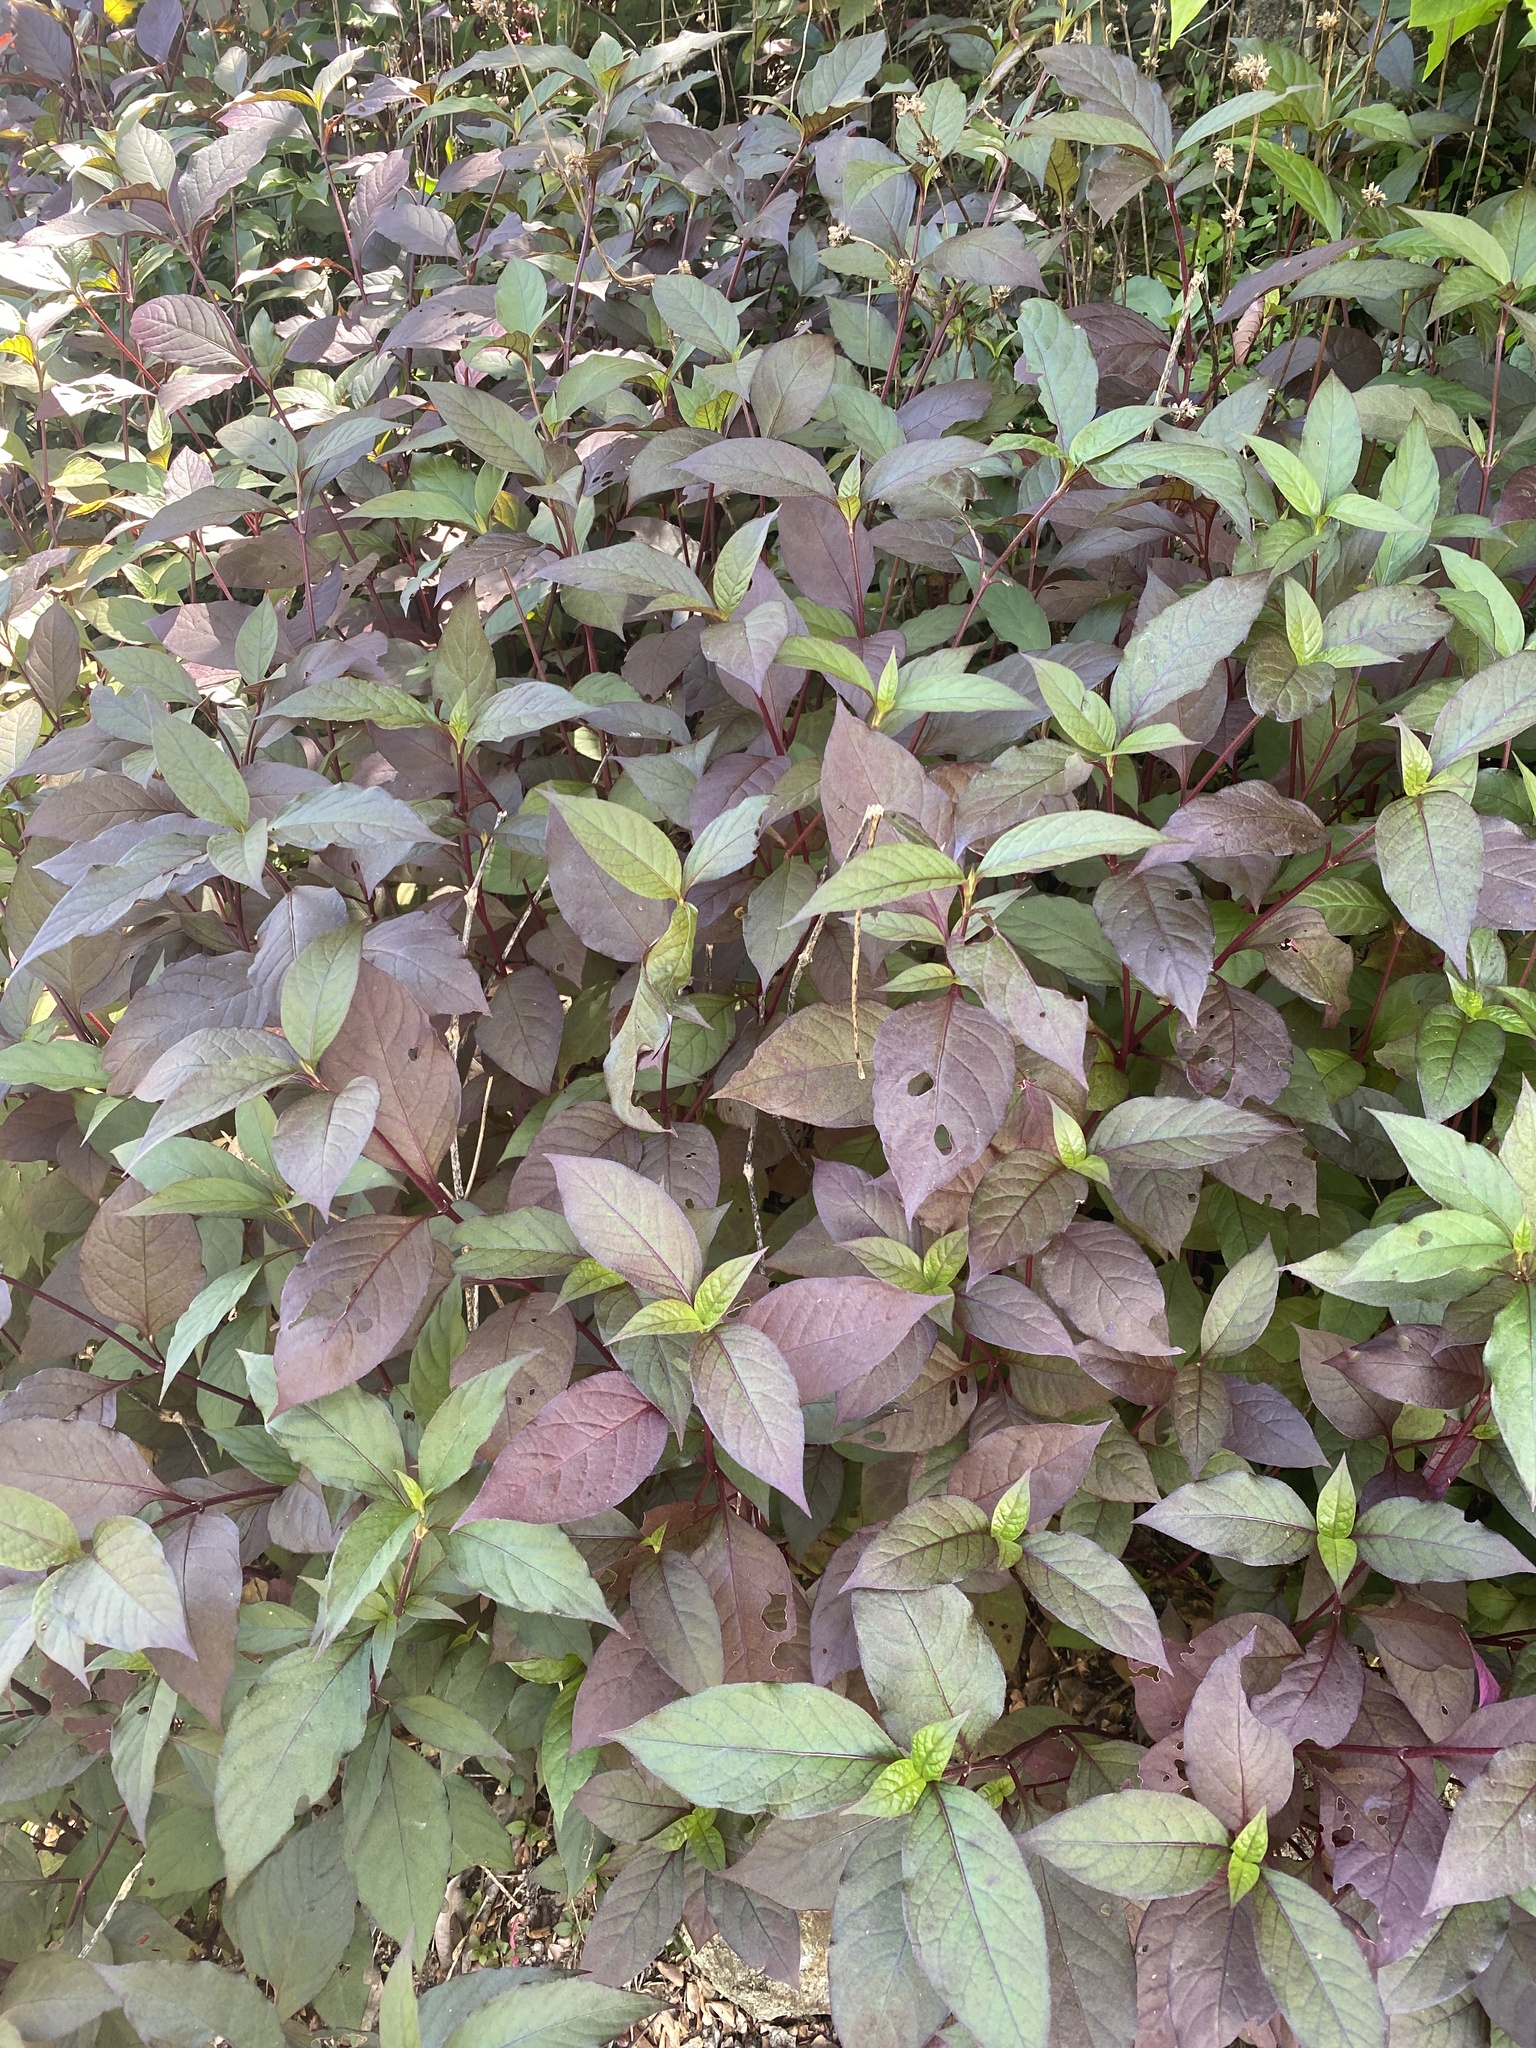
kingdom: Plantae
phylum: Tracheophyta
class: Magnoliopsida
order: Caryophyllales
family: Amaranthaceae
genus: Alternanthera
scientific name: Alternanthera brasiliana
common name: Brazilian joyweed
